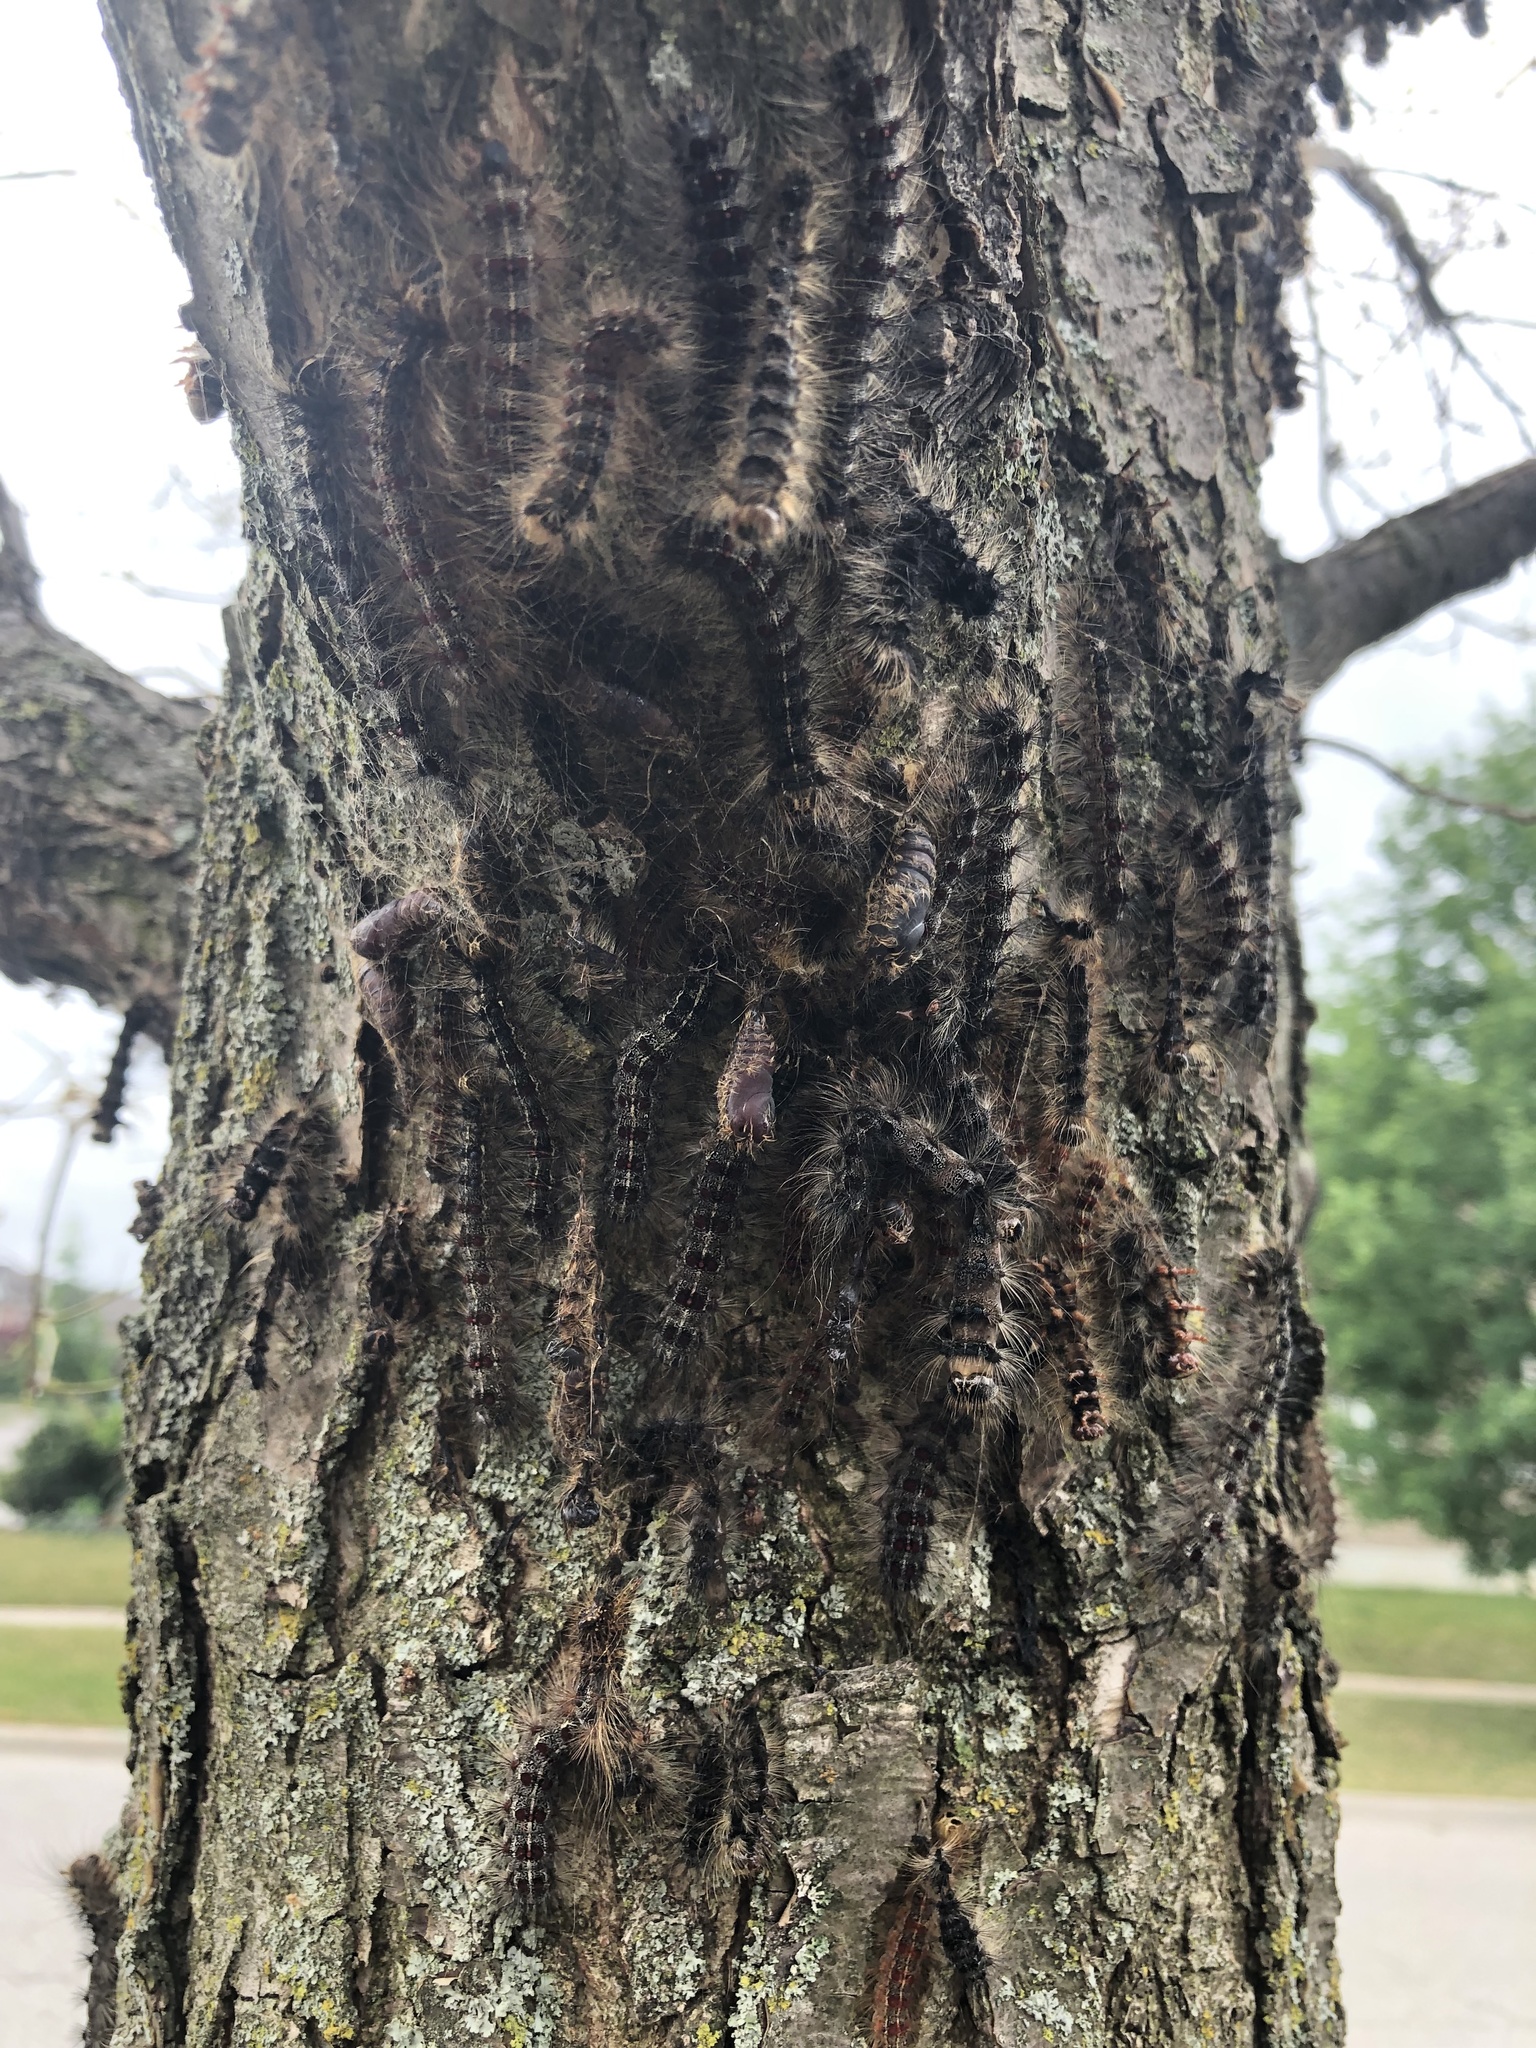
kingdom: Animalia
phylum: Arthropoda
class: Insecta
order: Lepidoptera
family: Erebidae
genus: Lymantria
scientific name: Lymantria dispar
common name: Gypsy moth
